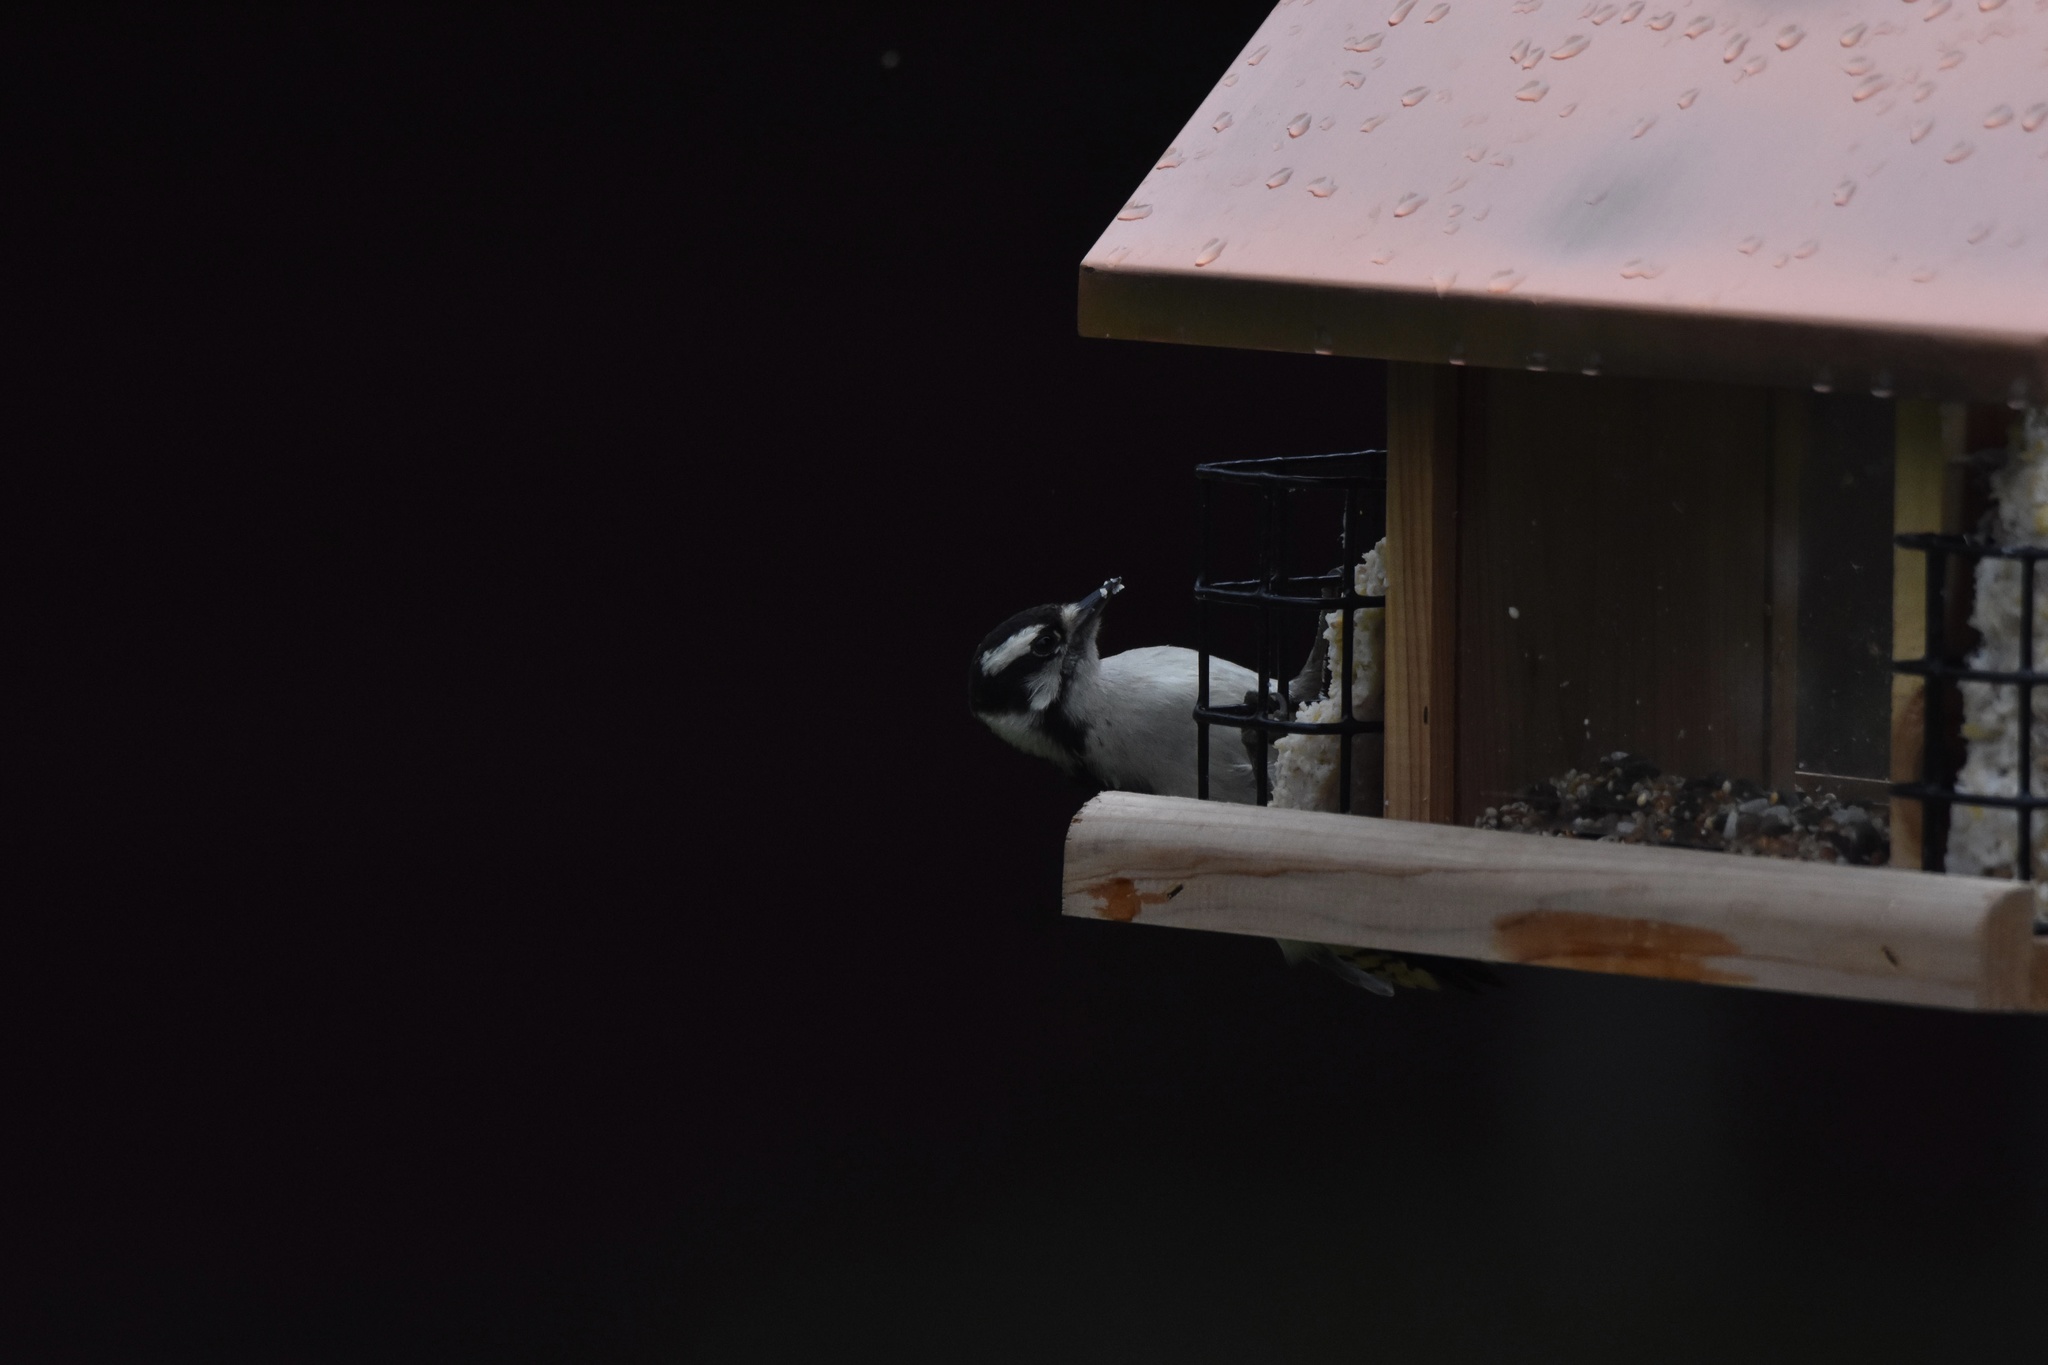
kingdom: Animalia
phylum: Chordata
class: Aves
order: Piciformes
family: Picidae
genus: Dryobates
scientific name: Dryobates pubescens
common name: Downy woodpecker
